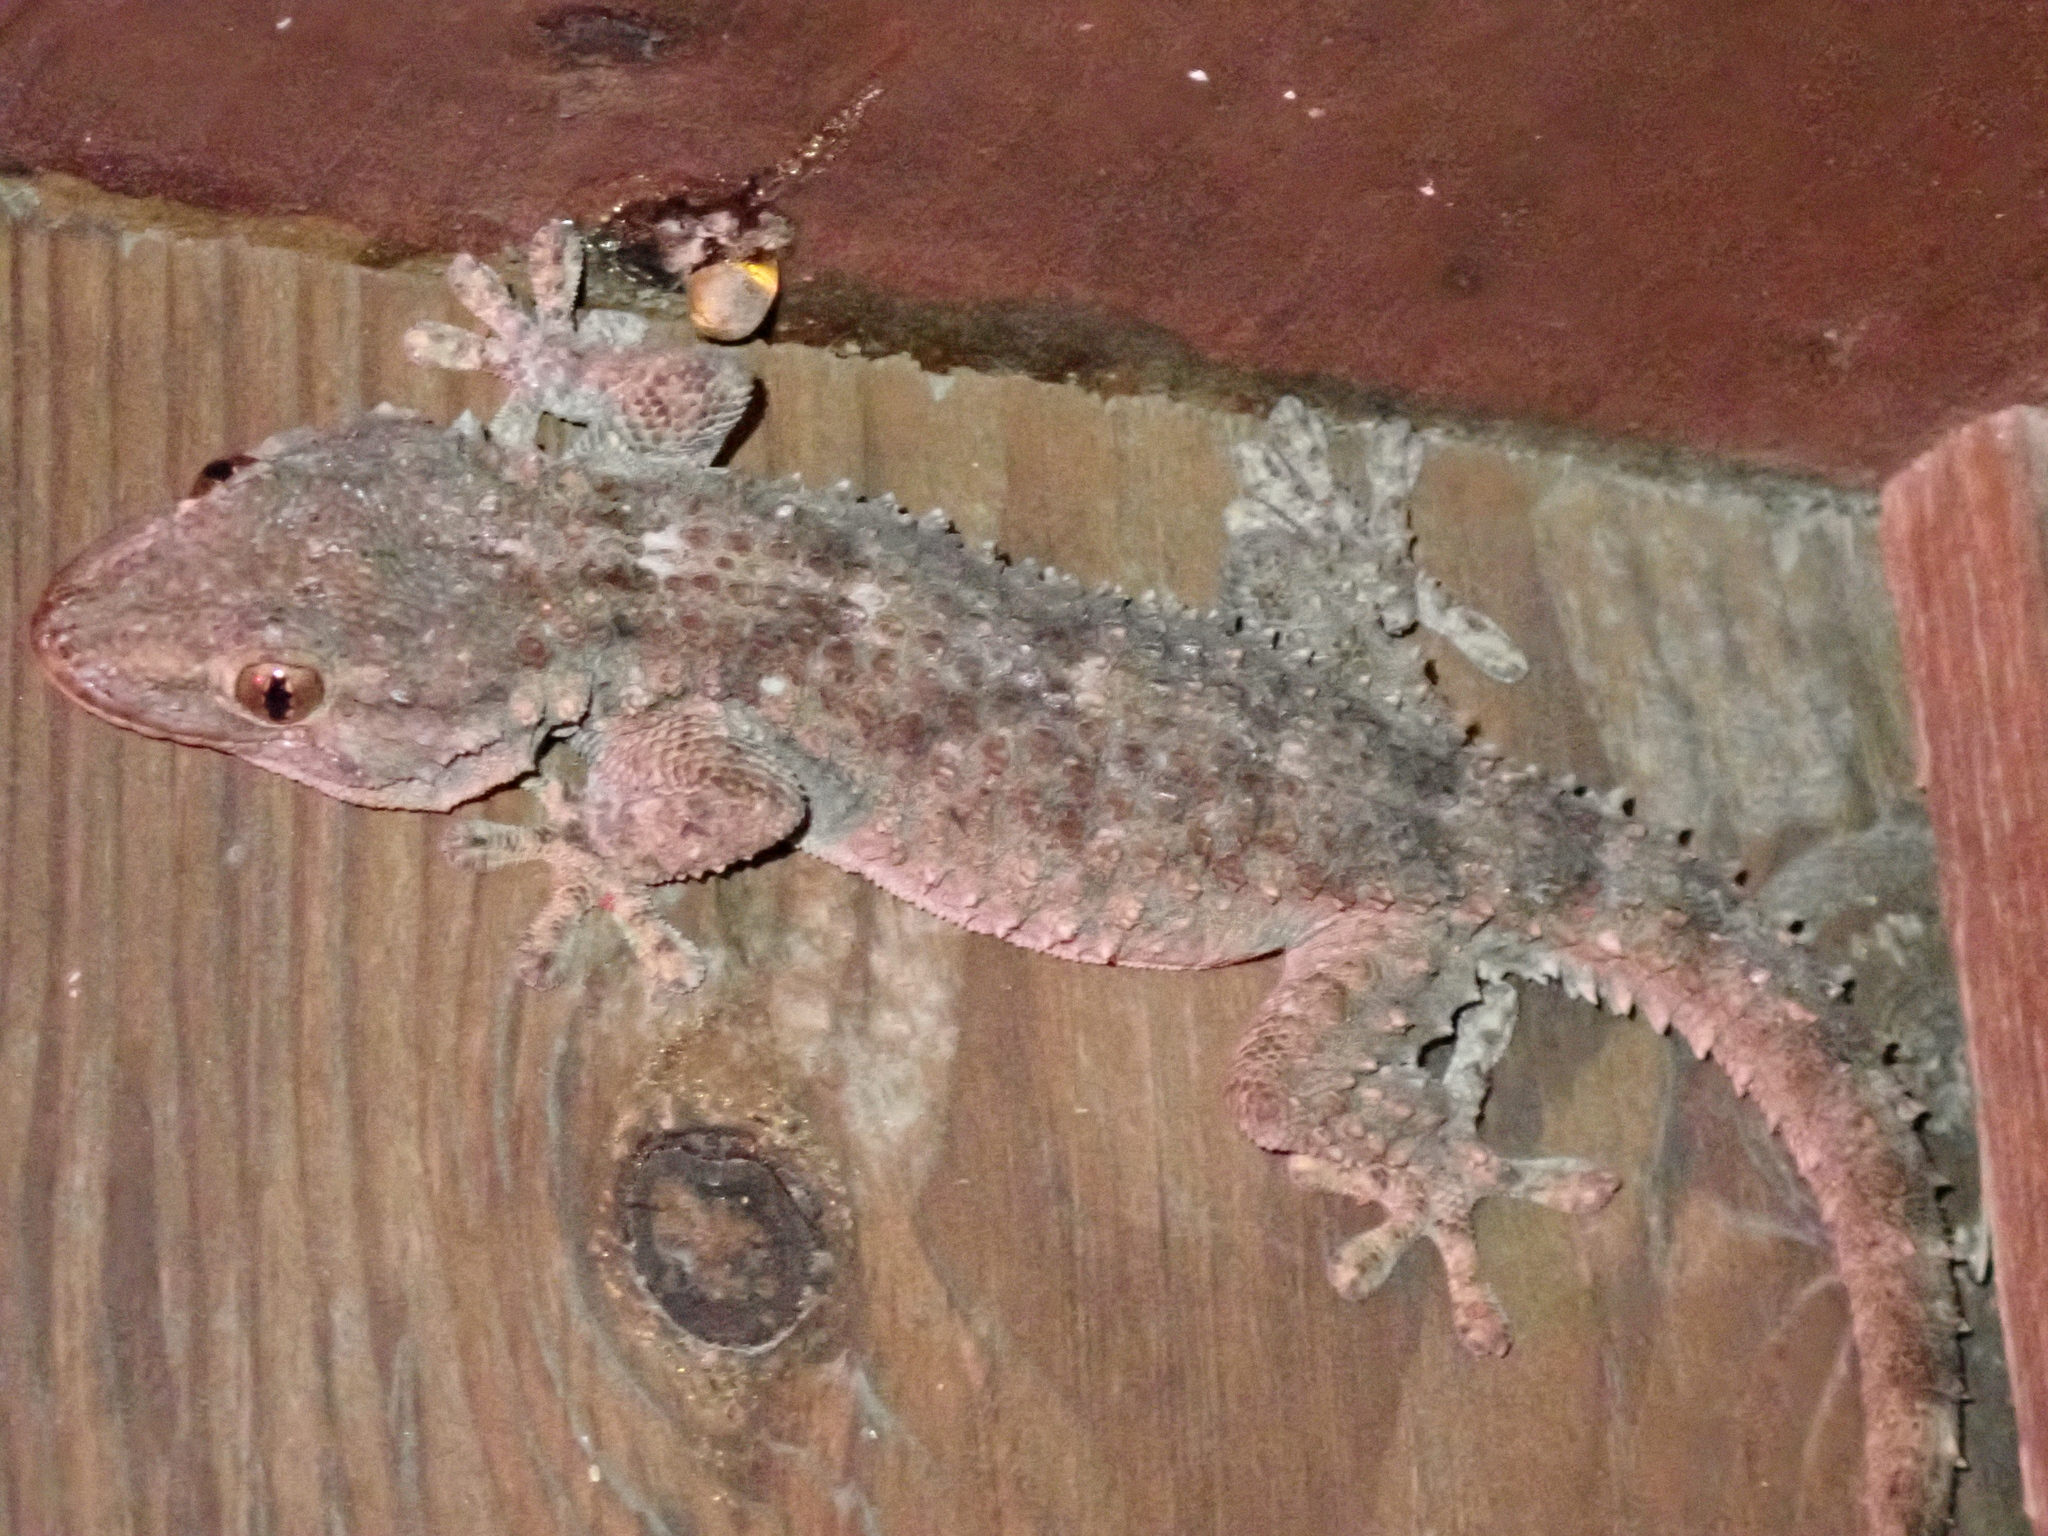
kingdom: Animalia
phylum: Chordata
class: Squamata
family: Phyllodactylidae
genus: Tarentola
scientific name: Tarentola mauritanica
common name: Moorish gecko
